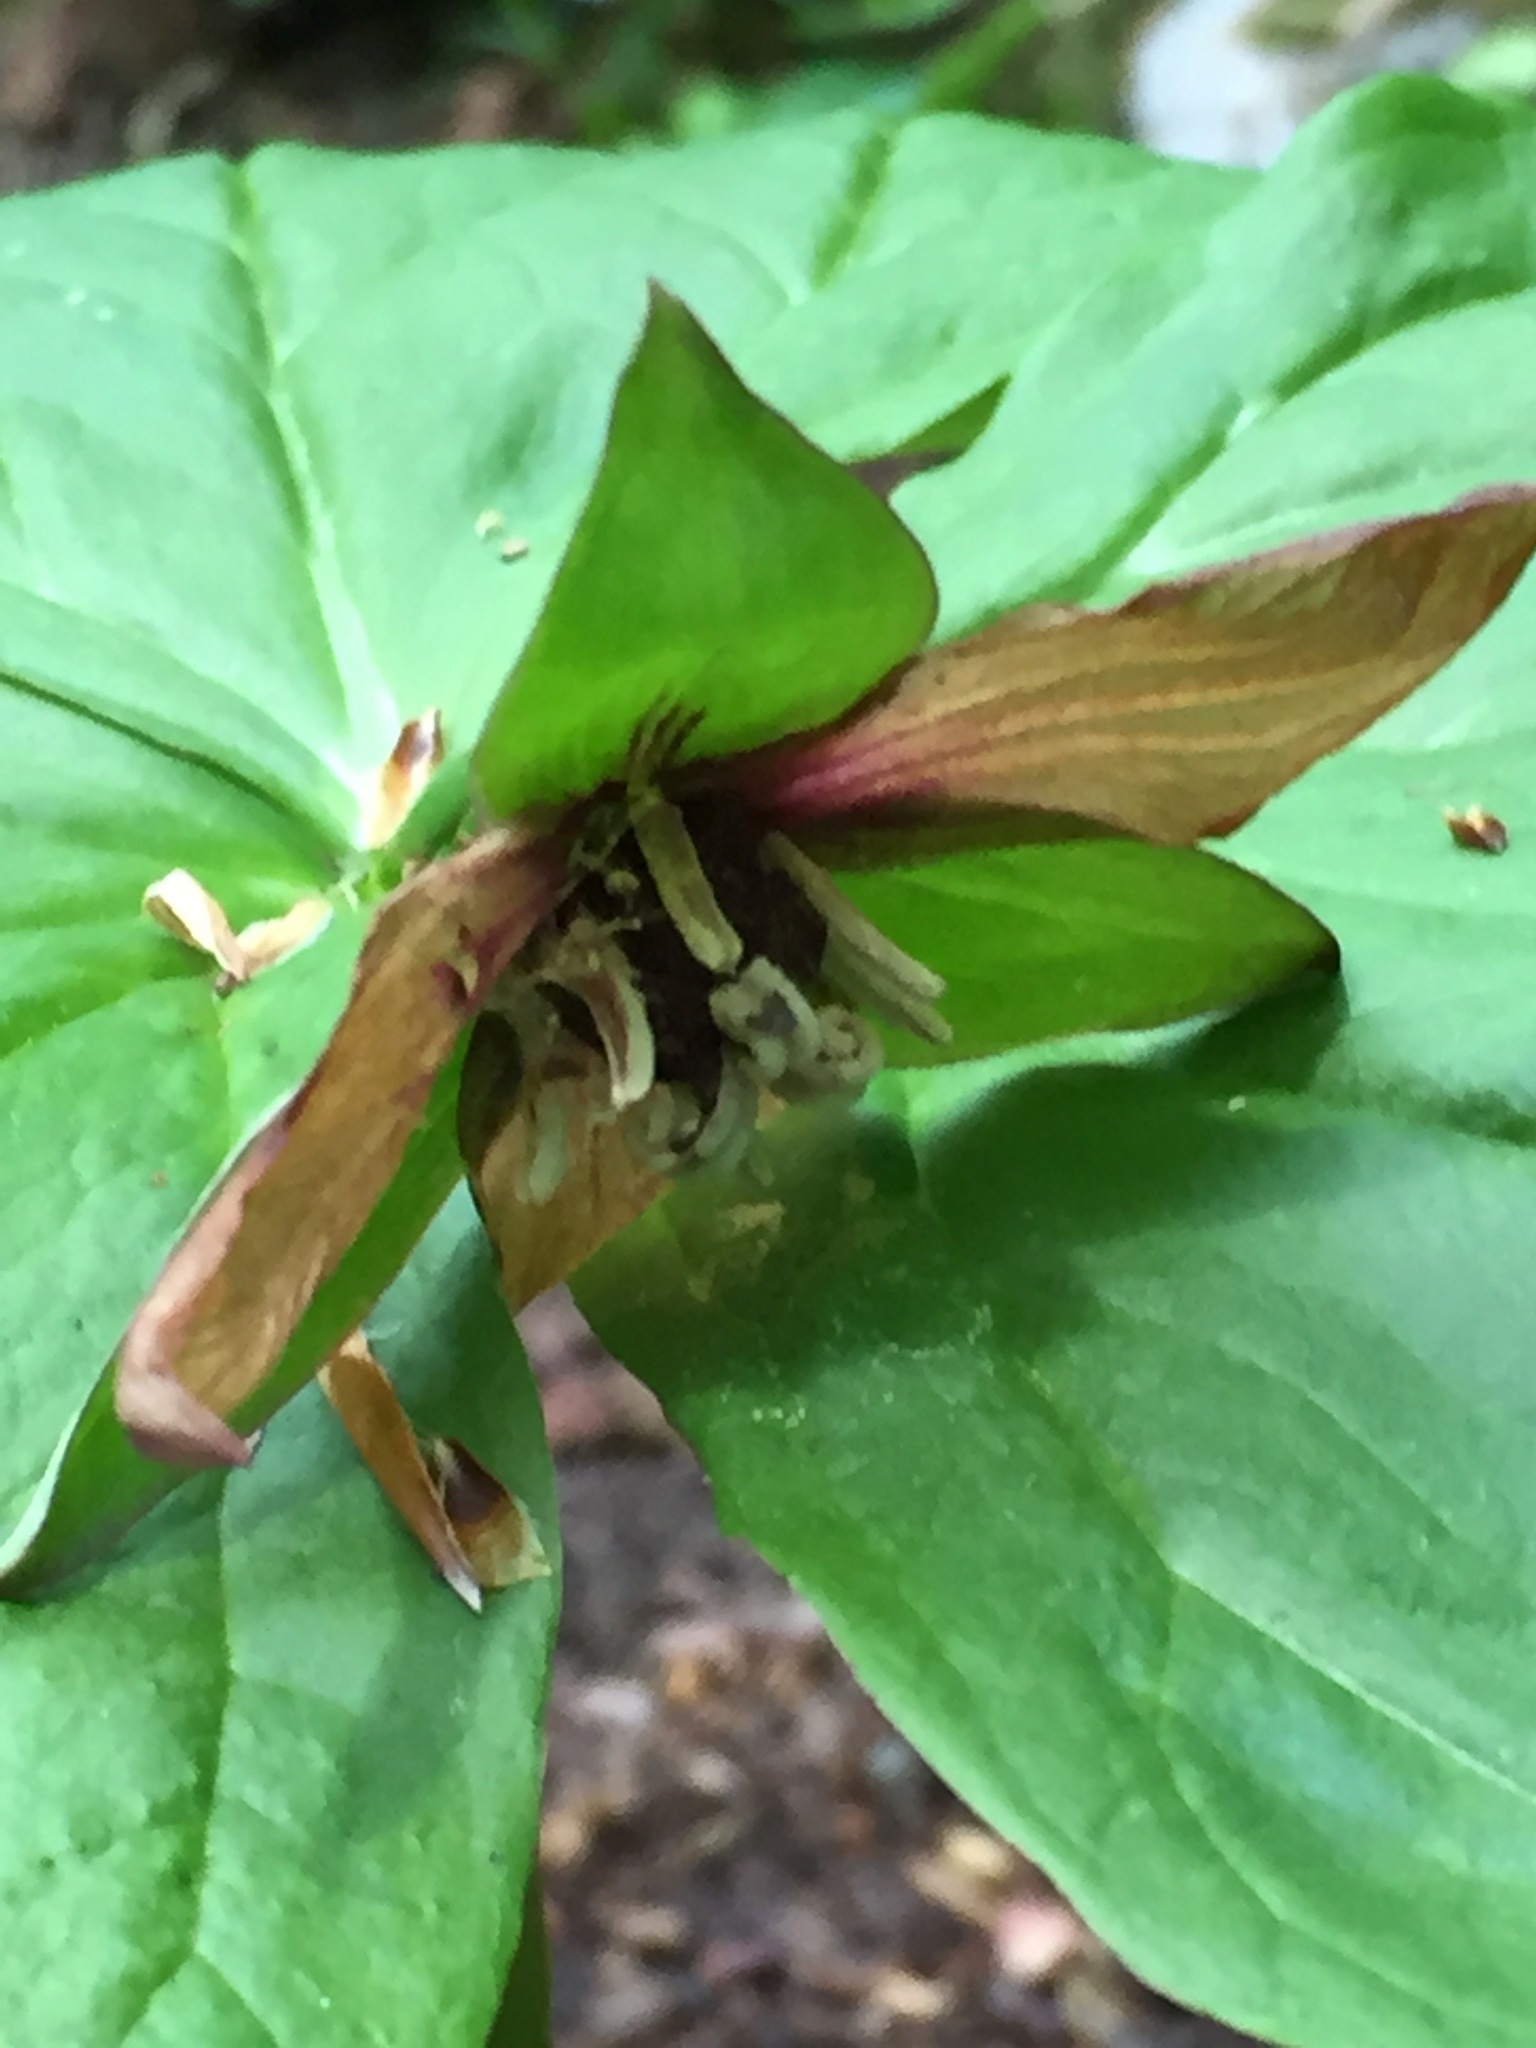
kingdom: Plantae
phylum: Tracheophyta
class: Liliopsida
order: Liliales
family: Melanthiaceae
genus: Trillium
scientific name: Trillium erectum
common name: Purple trillium
